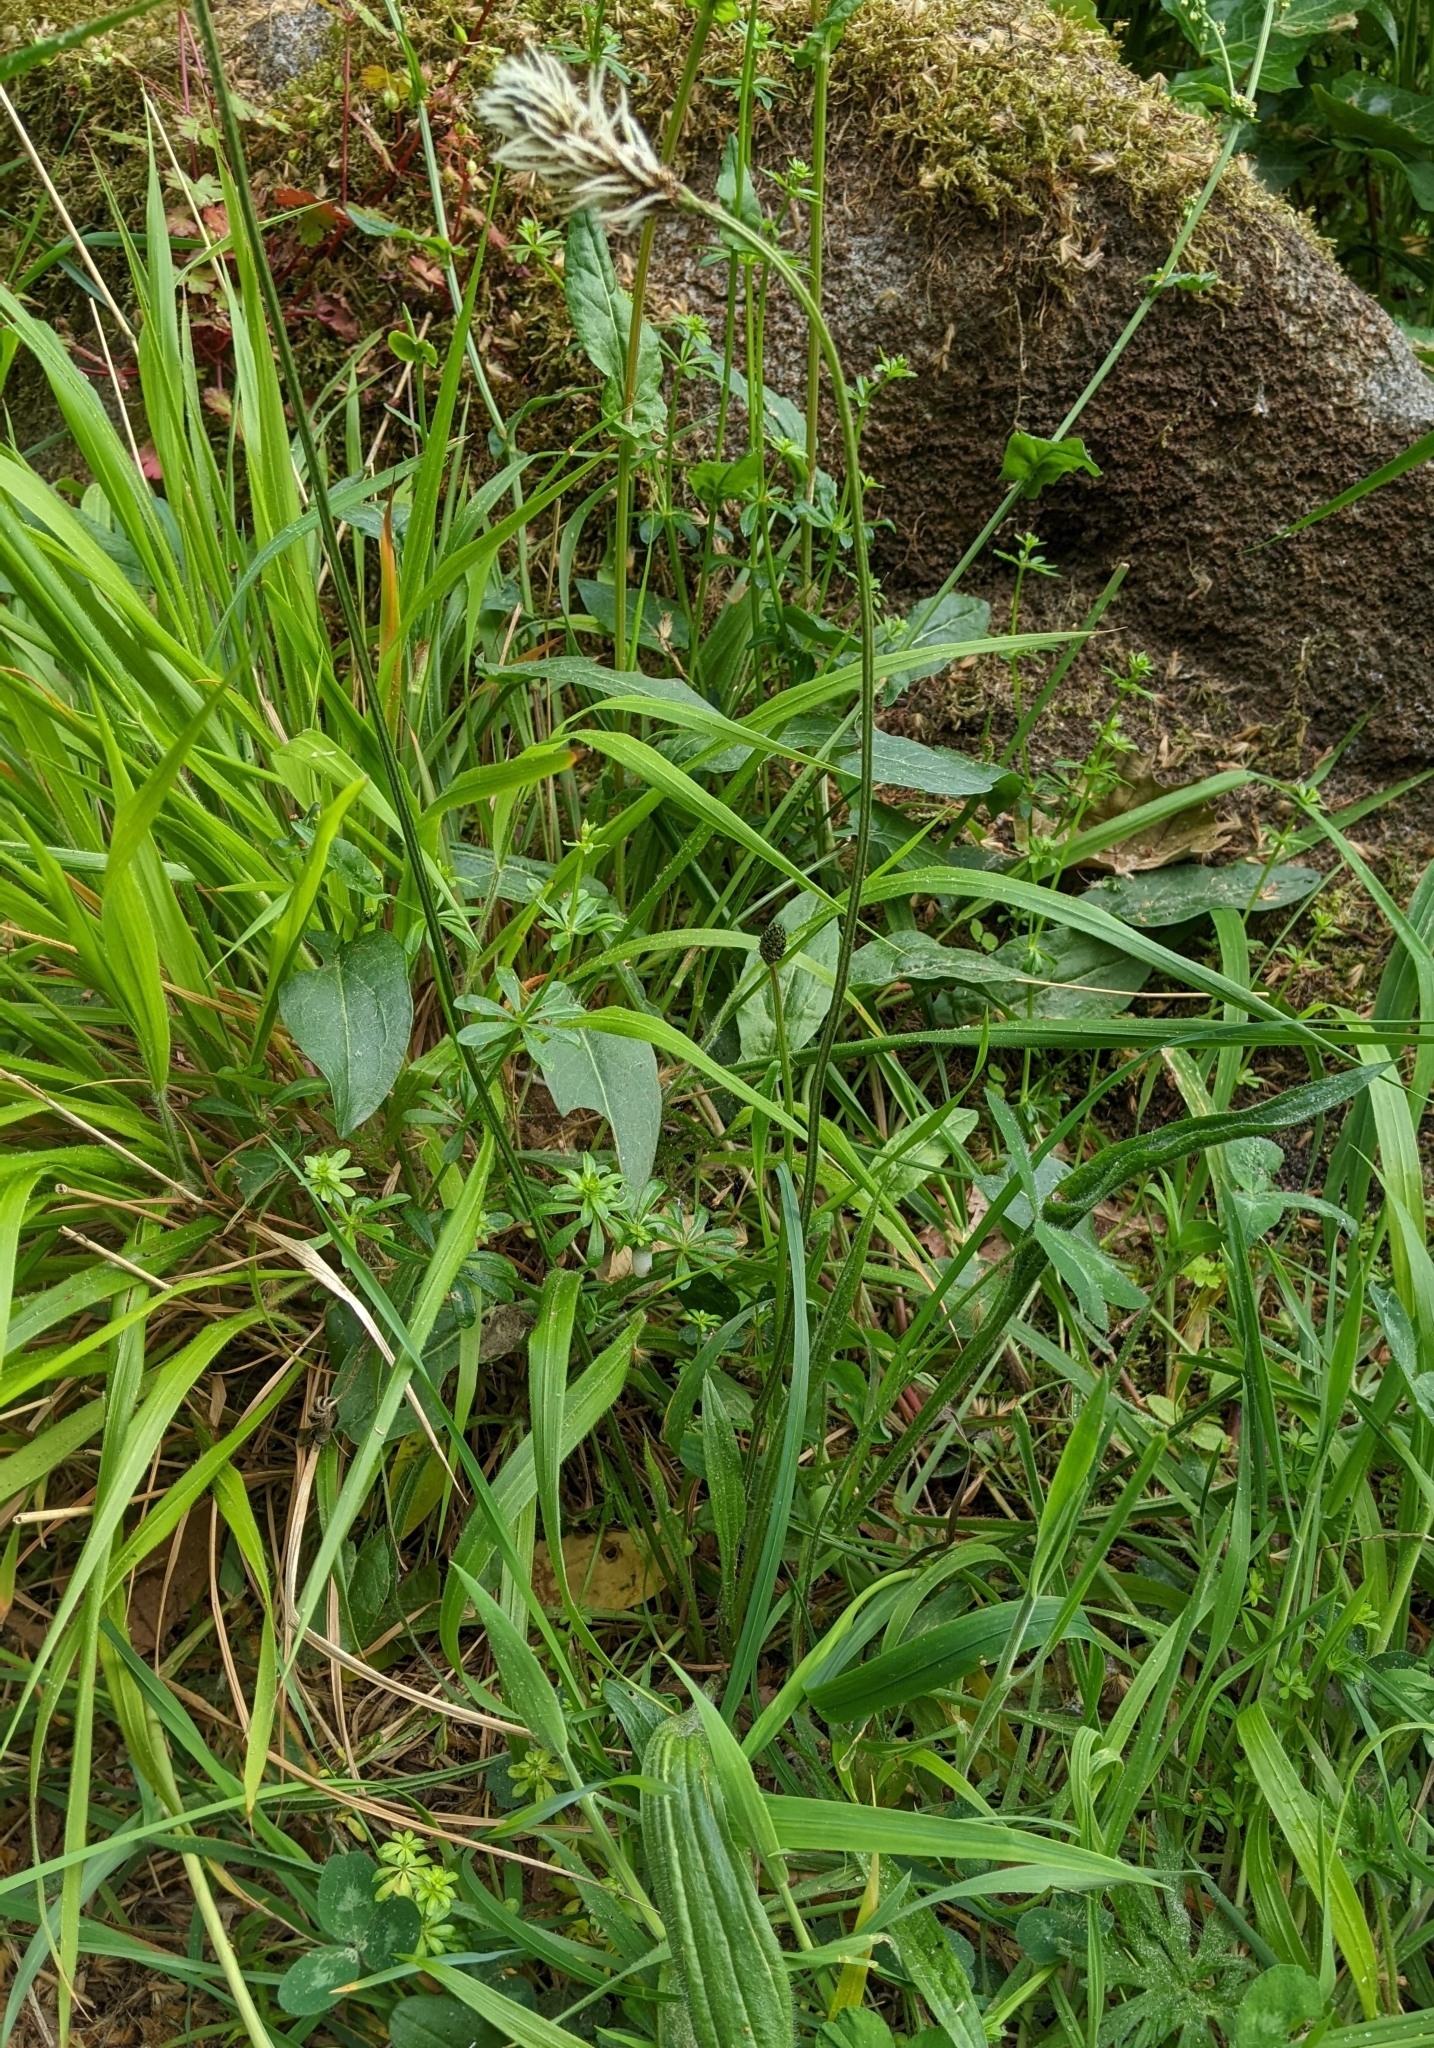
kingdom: Plantae
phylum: Tracheophyta
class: Magnoliopsida
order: Lamiales
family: Plantaginaceae
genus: Plantago
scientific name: Plantago lanceolata
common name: Ribwort plantain
